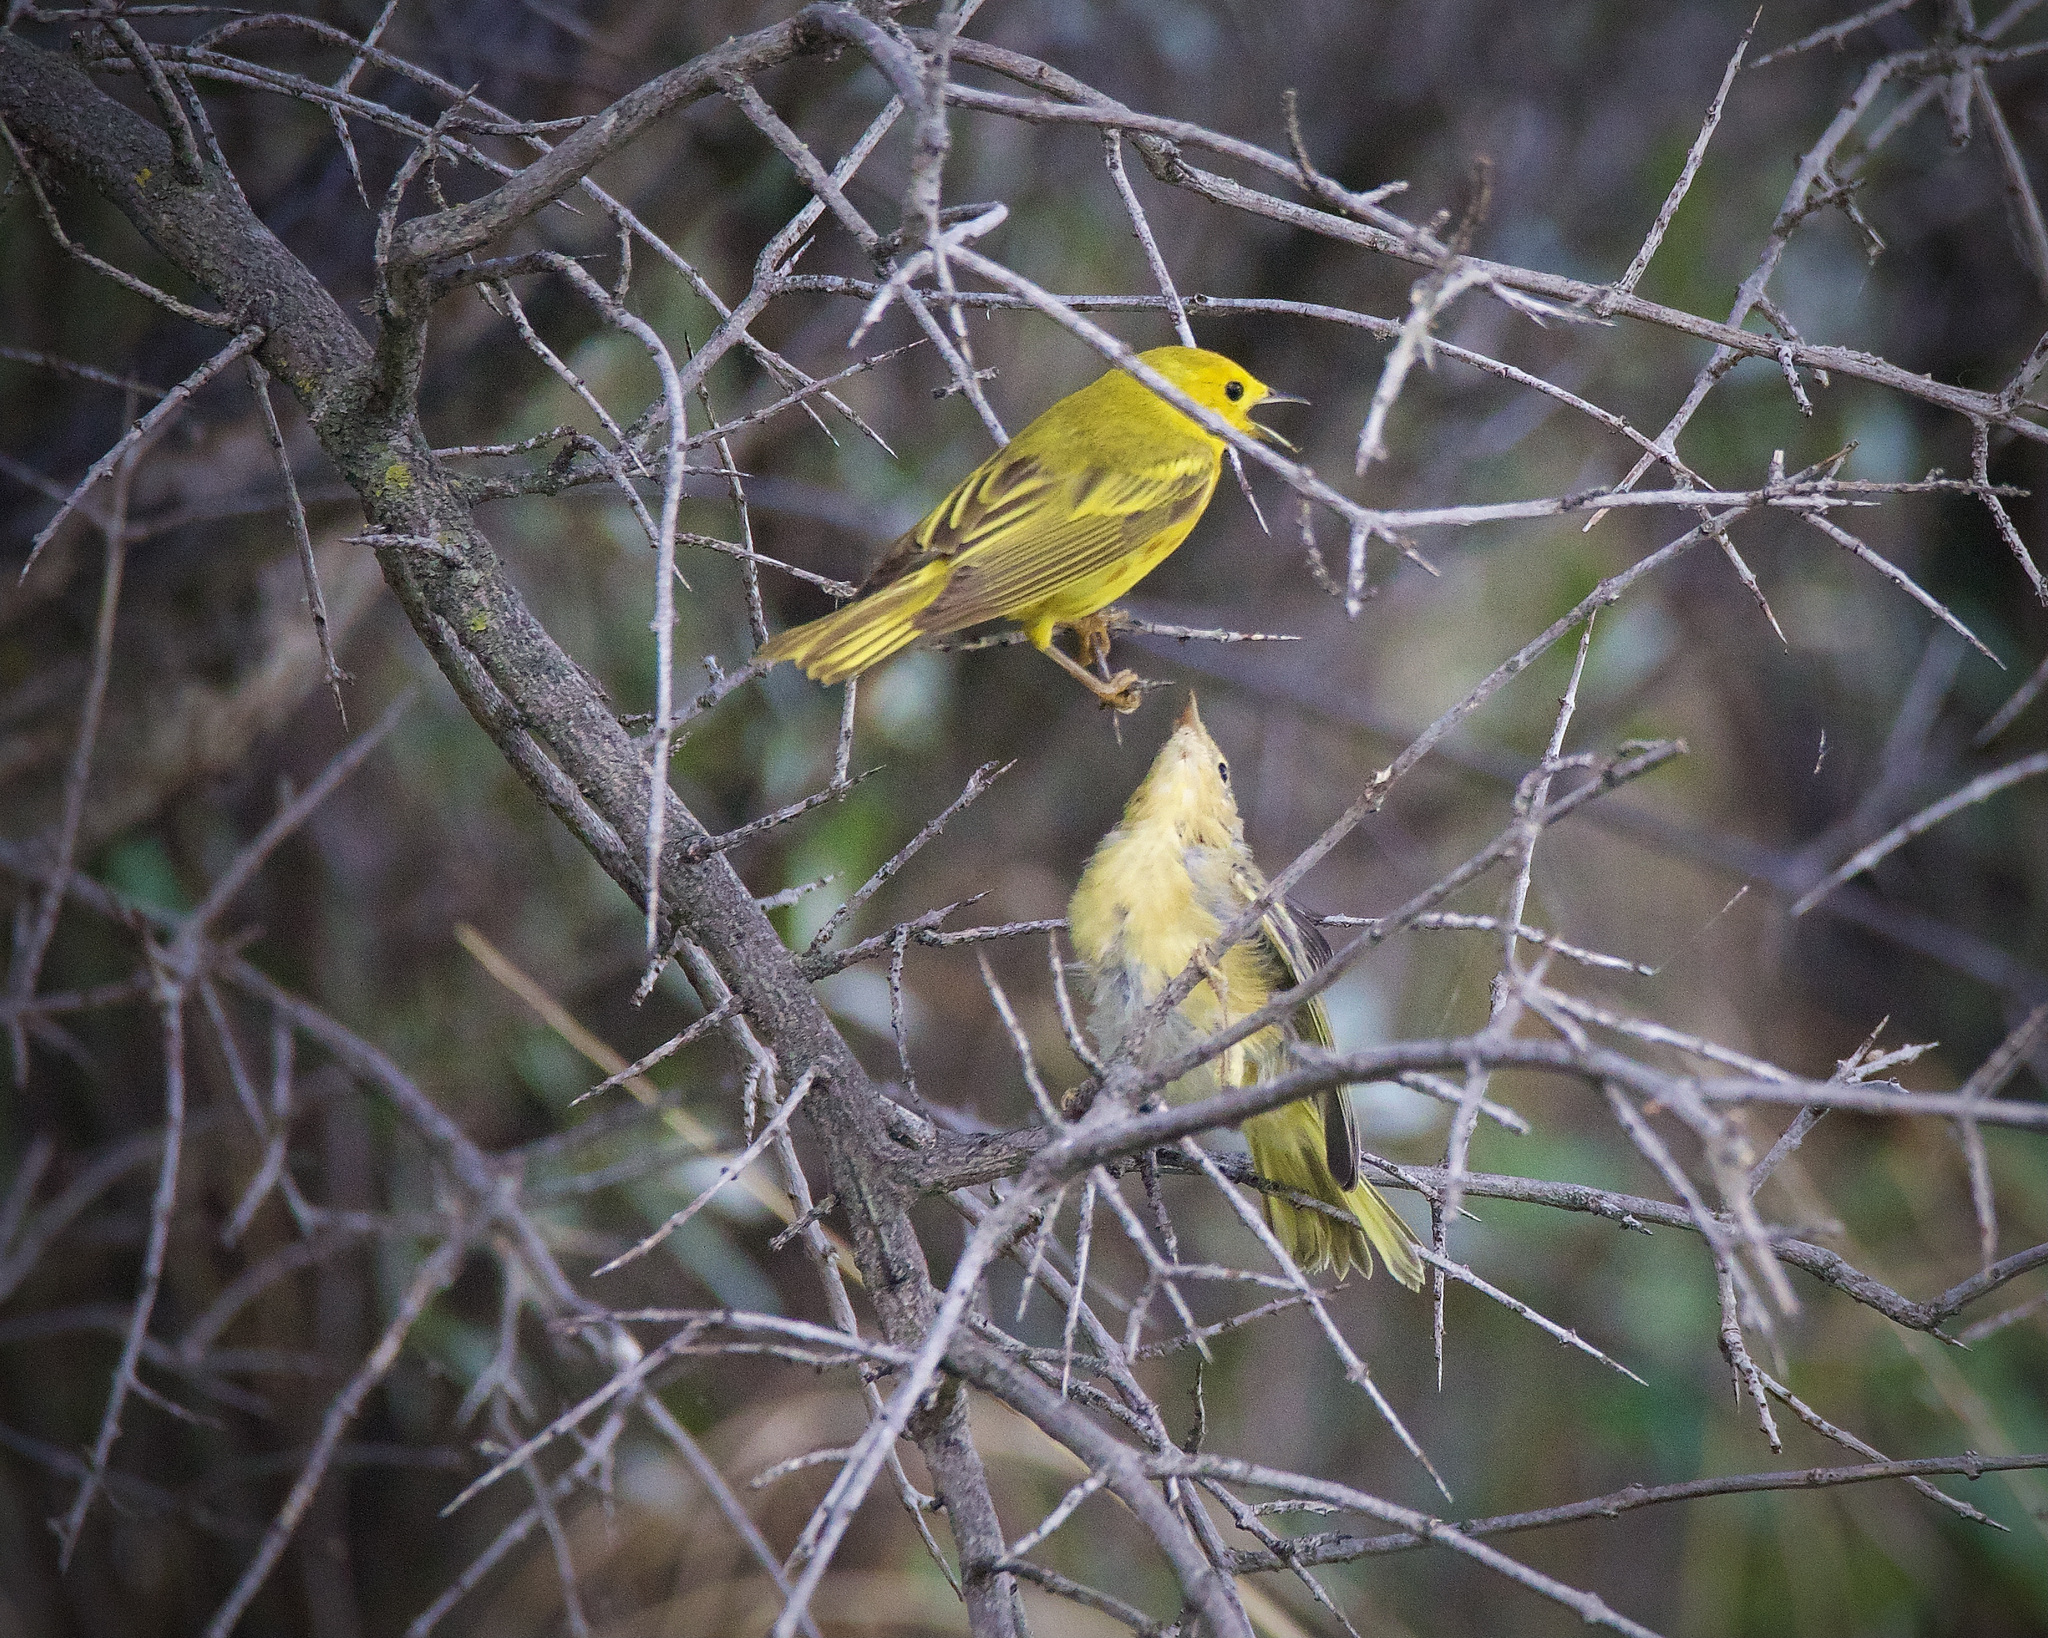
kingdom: Animalia
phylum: Chordata
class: Aves
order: Passeriformes
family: Parulidae
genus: Setophaga
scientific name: Setophaga petechia
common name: Yellow warbler
